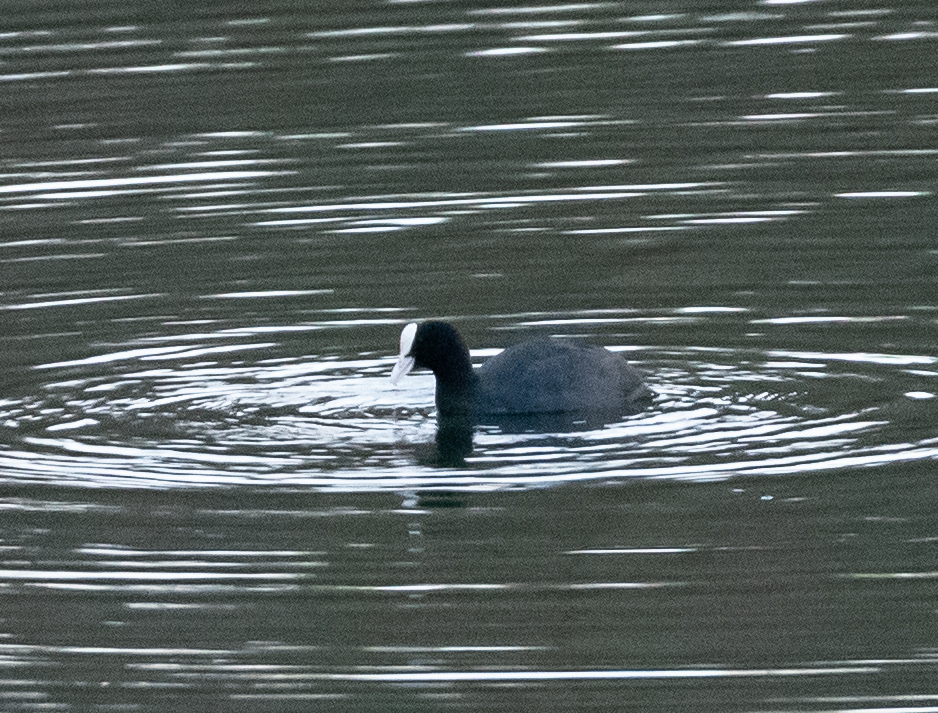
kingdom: Animalia
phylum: Chordata
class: Aves
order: Gruiformes
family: Rallidae
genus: Fulica
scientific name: Fulica atra
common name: Eurasian coot
